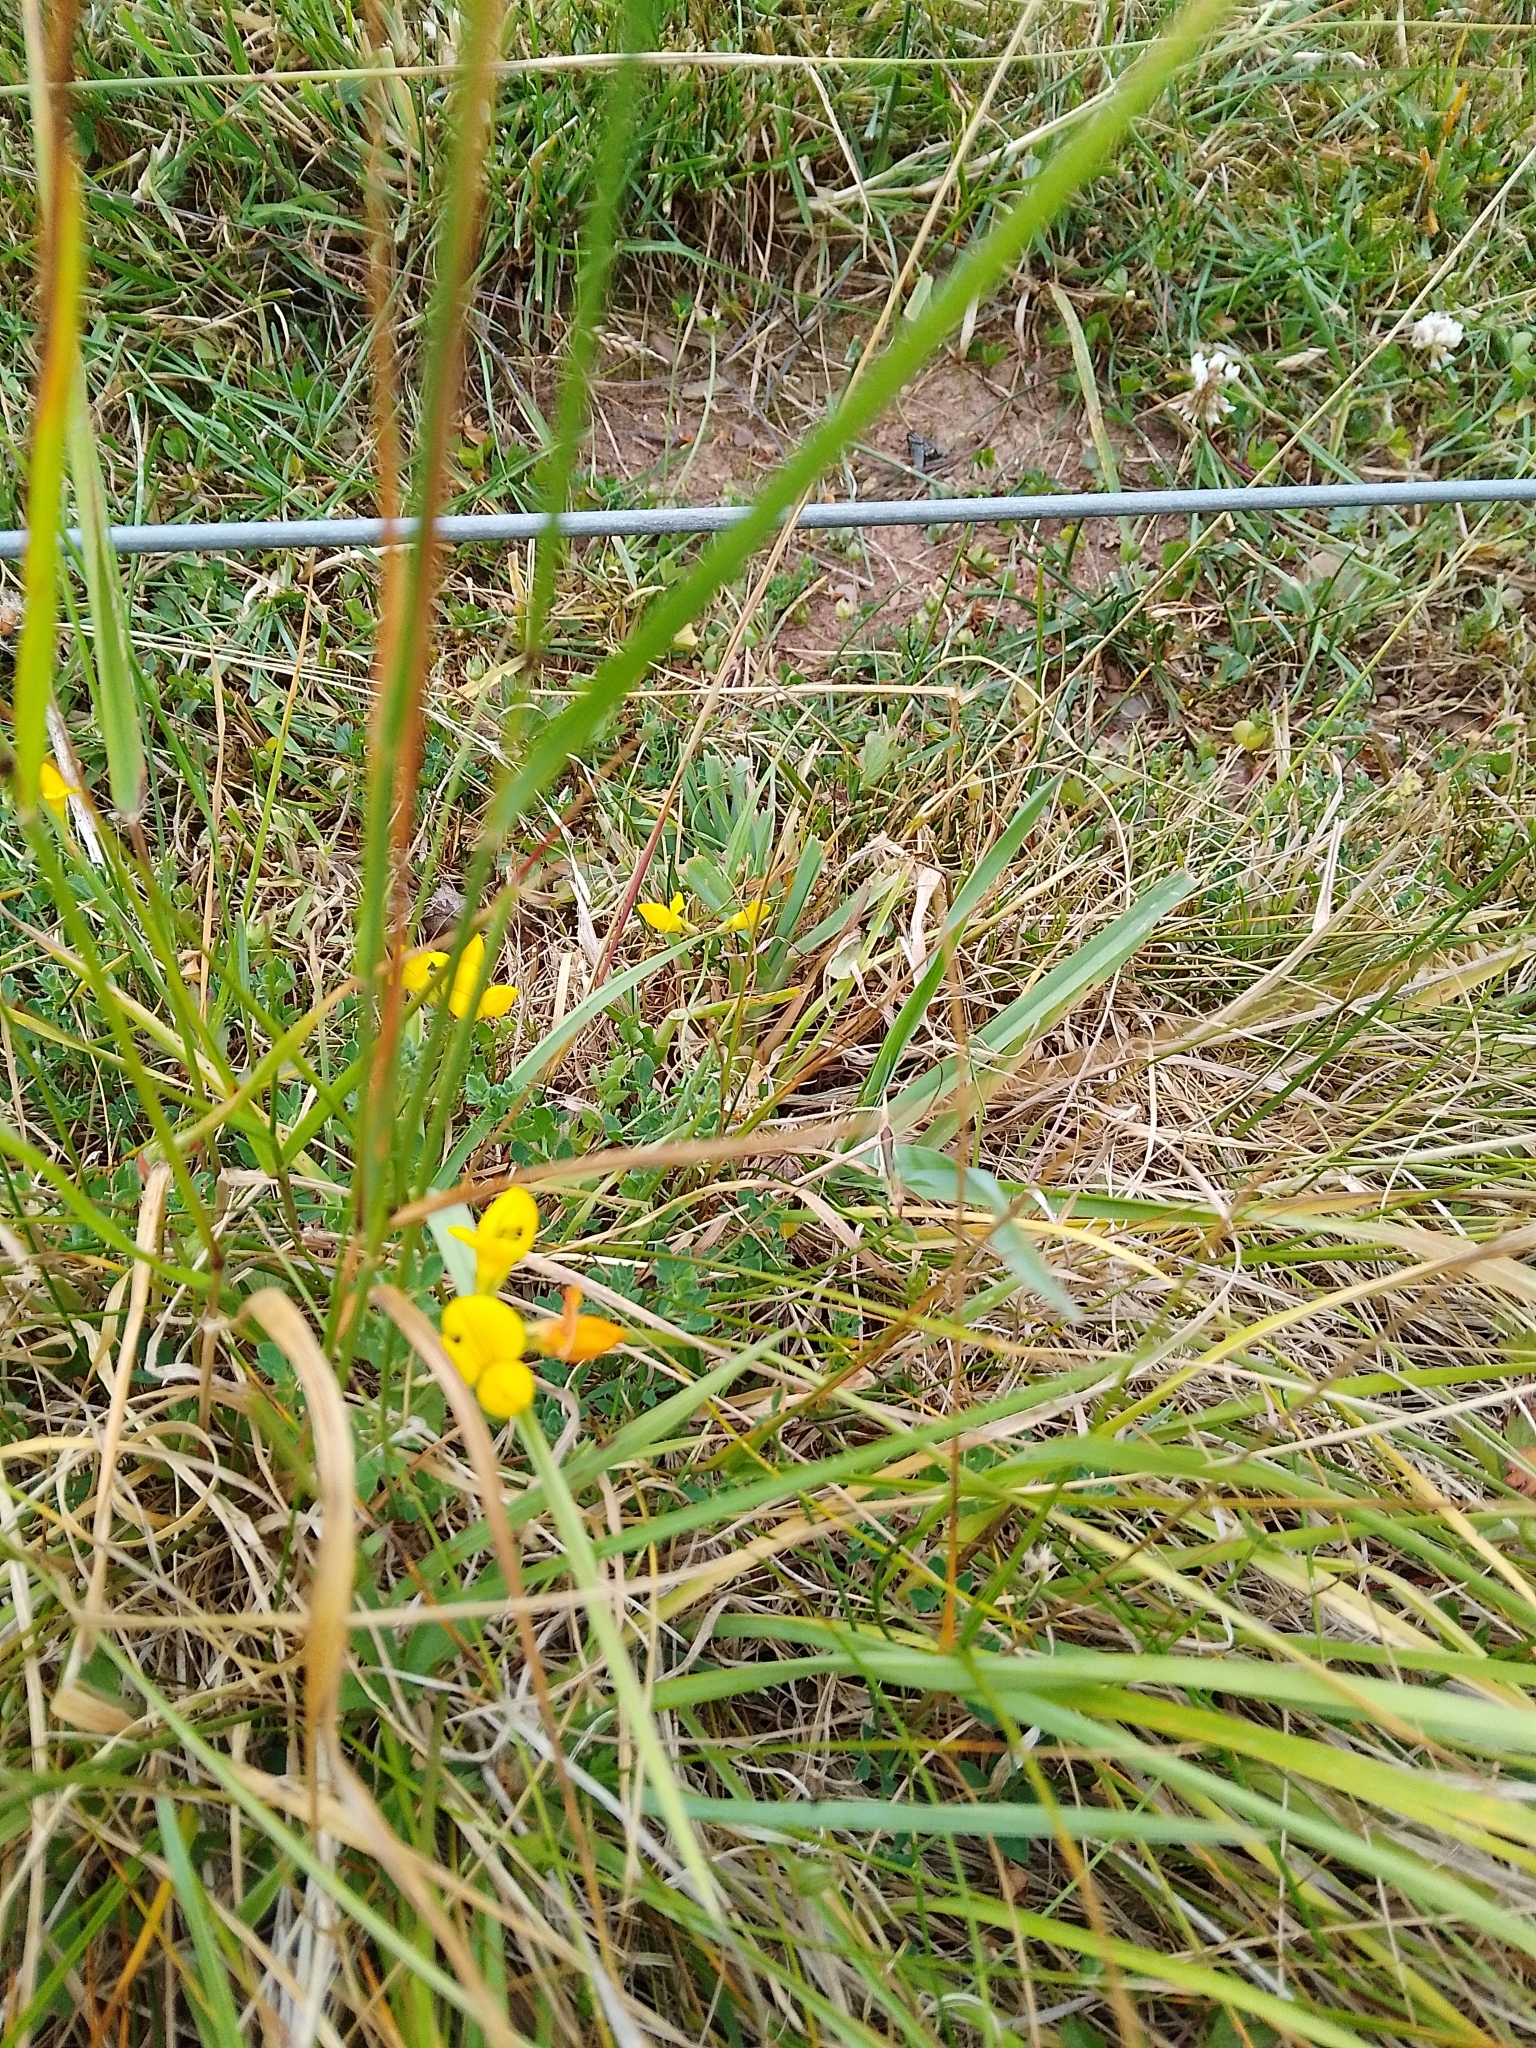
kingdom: Plantae
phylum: Tracheophyta
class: Magnoliopsida
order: Fabales
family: Fabaceae
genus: Lotus
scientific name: Lotus corniculatus
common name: Common bird's-foot-trefoil
